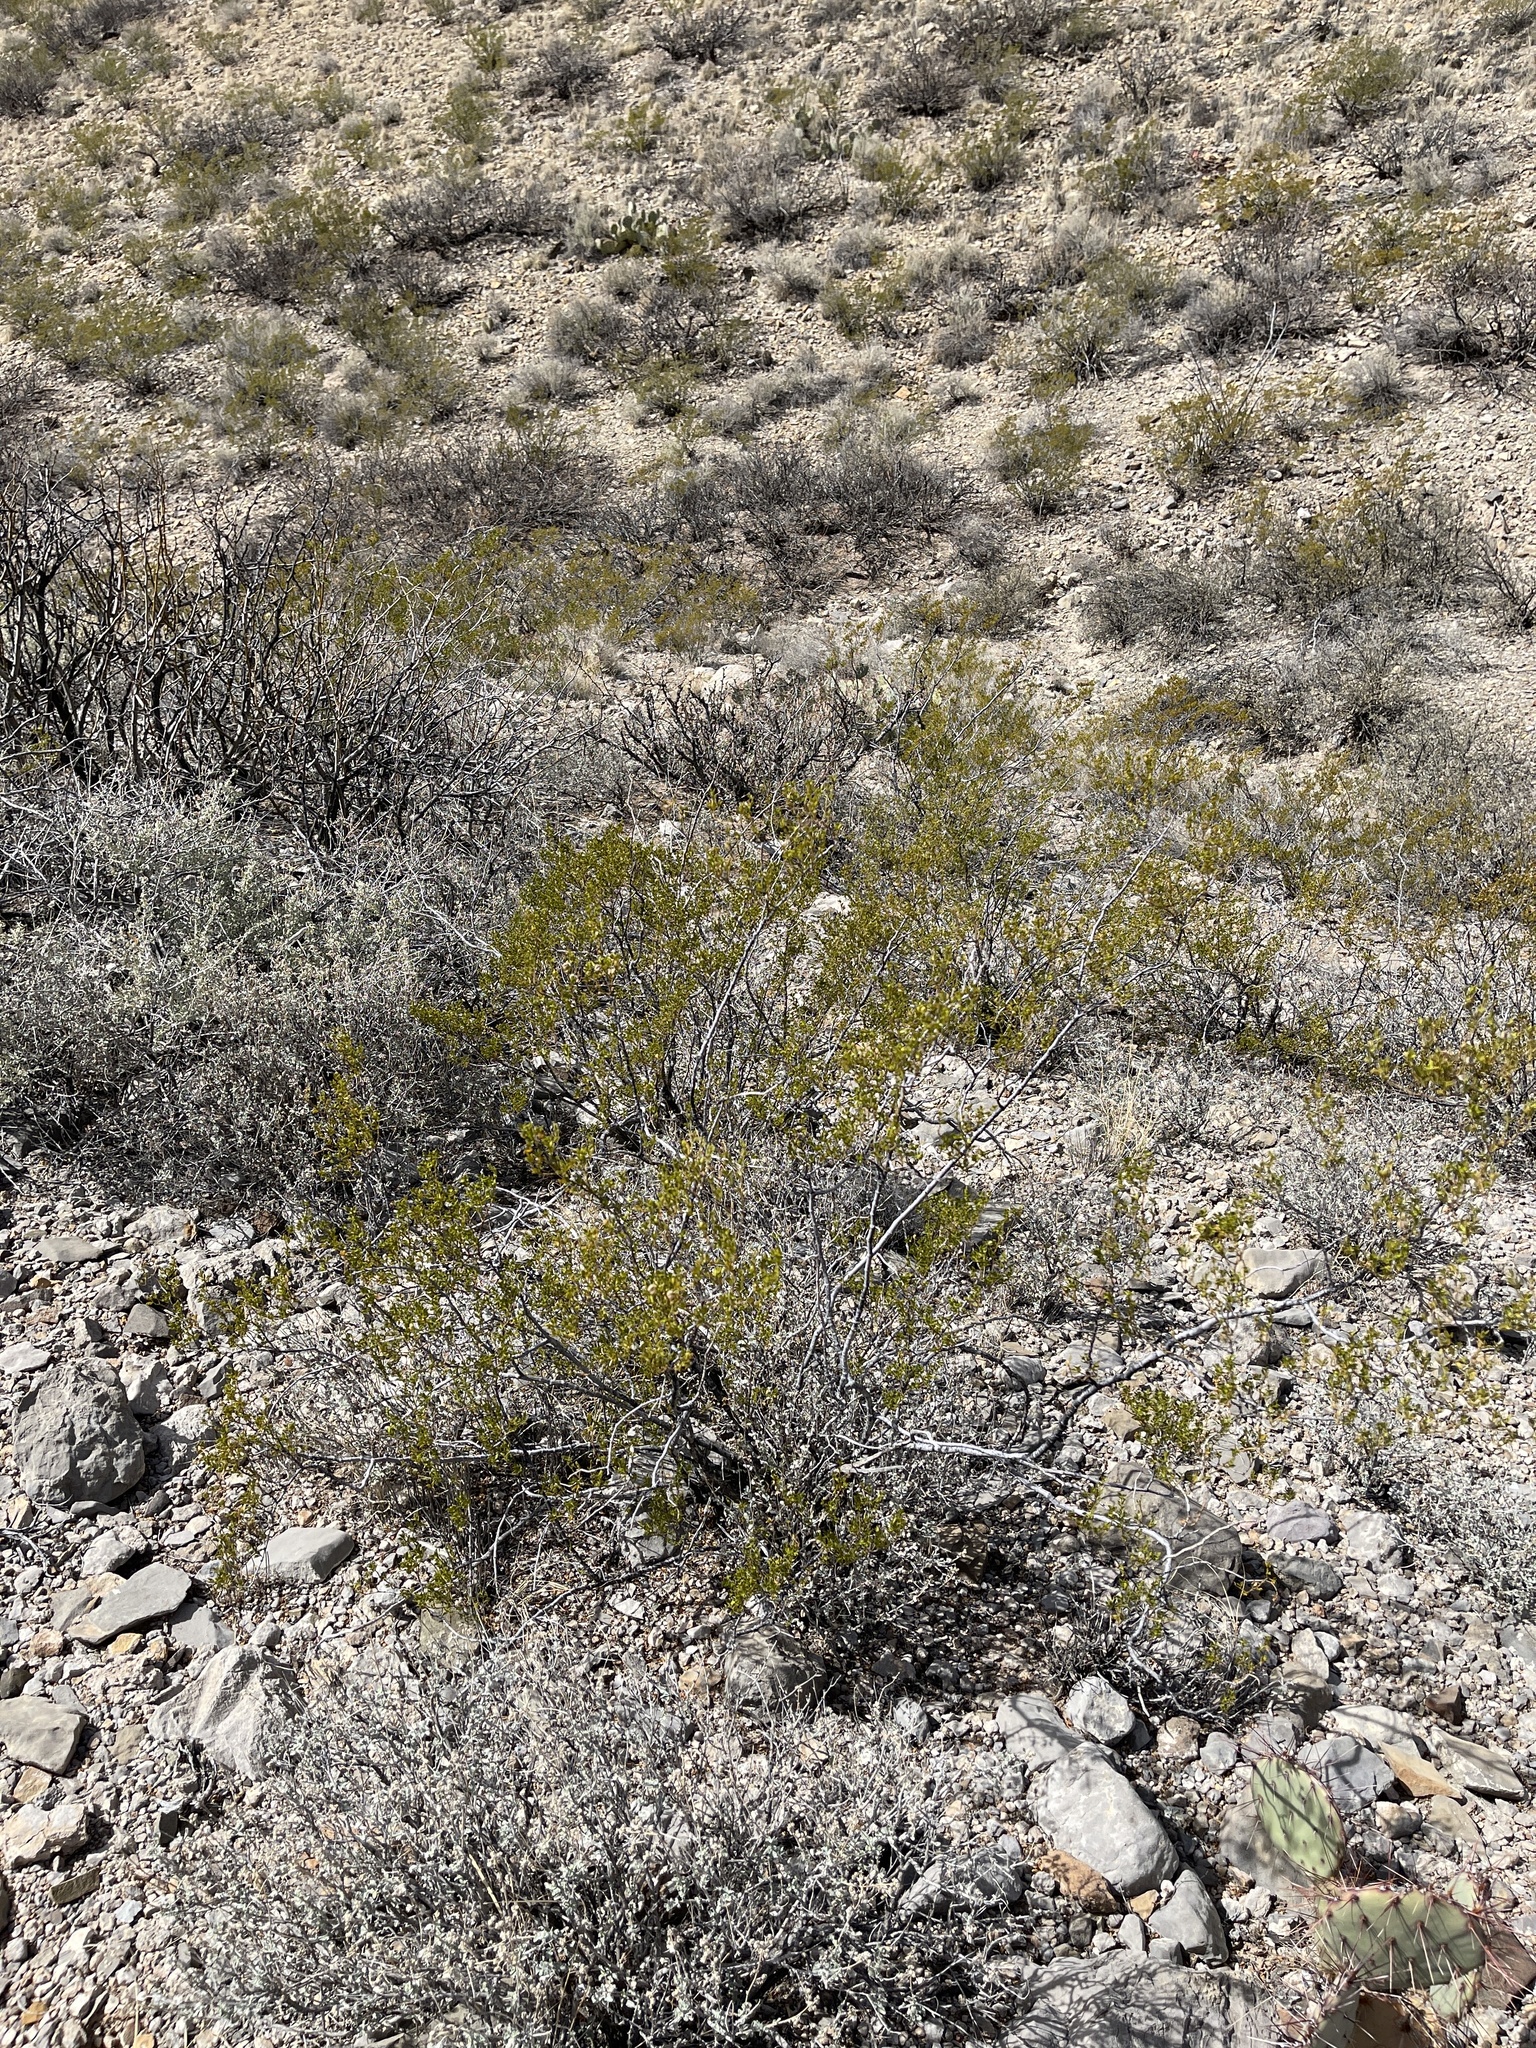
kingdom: Plantae
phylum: Tracheophyta
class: Magnoliopsida
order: Zygophyllales
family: Zygophyllaceae
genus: Larrea
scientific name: Larrea tridentata
